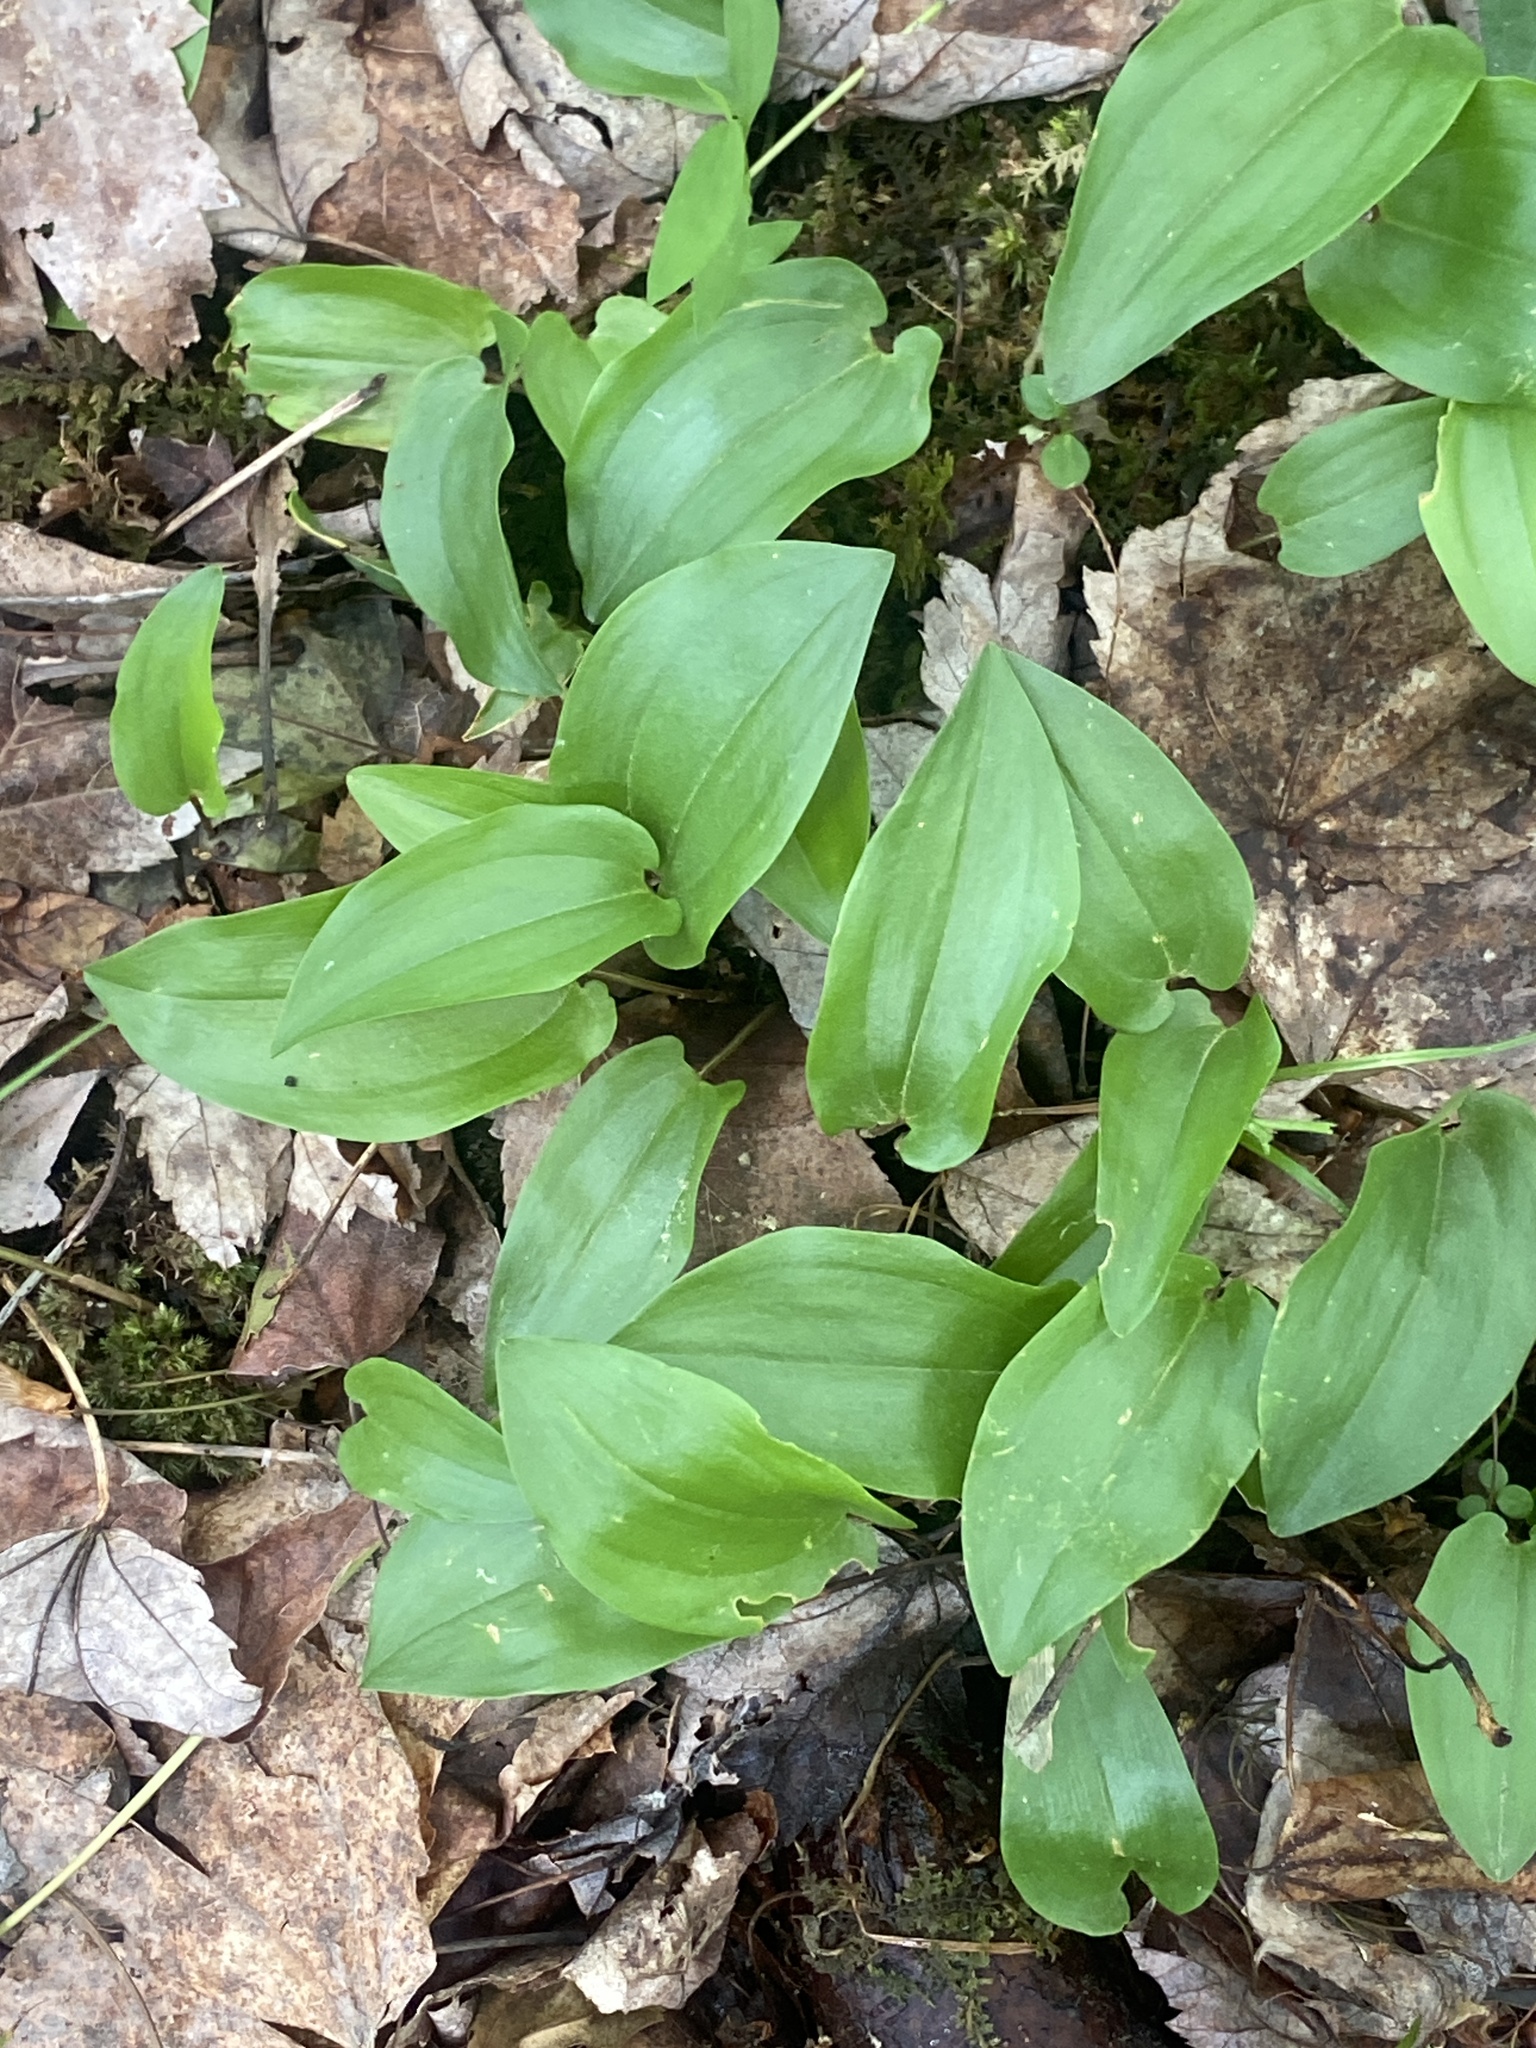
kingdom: Plantae
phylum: Tracheophyta
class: Liliopsida
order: Asparagales
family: Asparagaceae
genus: Maianthemum
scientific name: Maianthemum canadense
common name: False lily-of-the-valley
